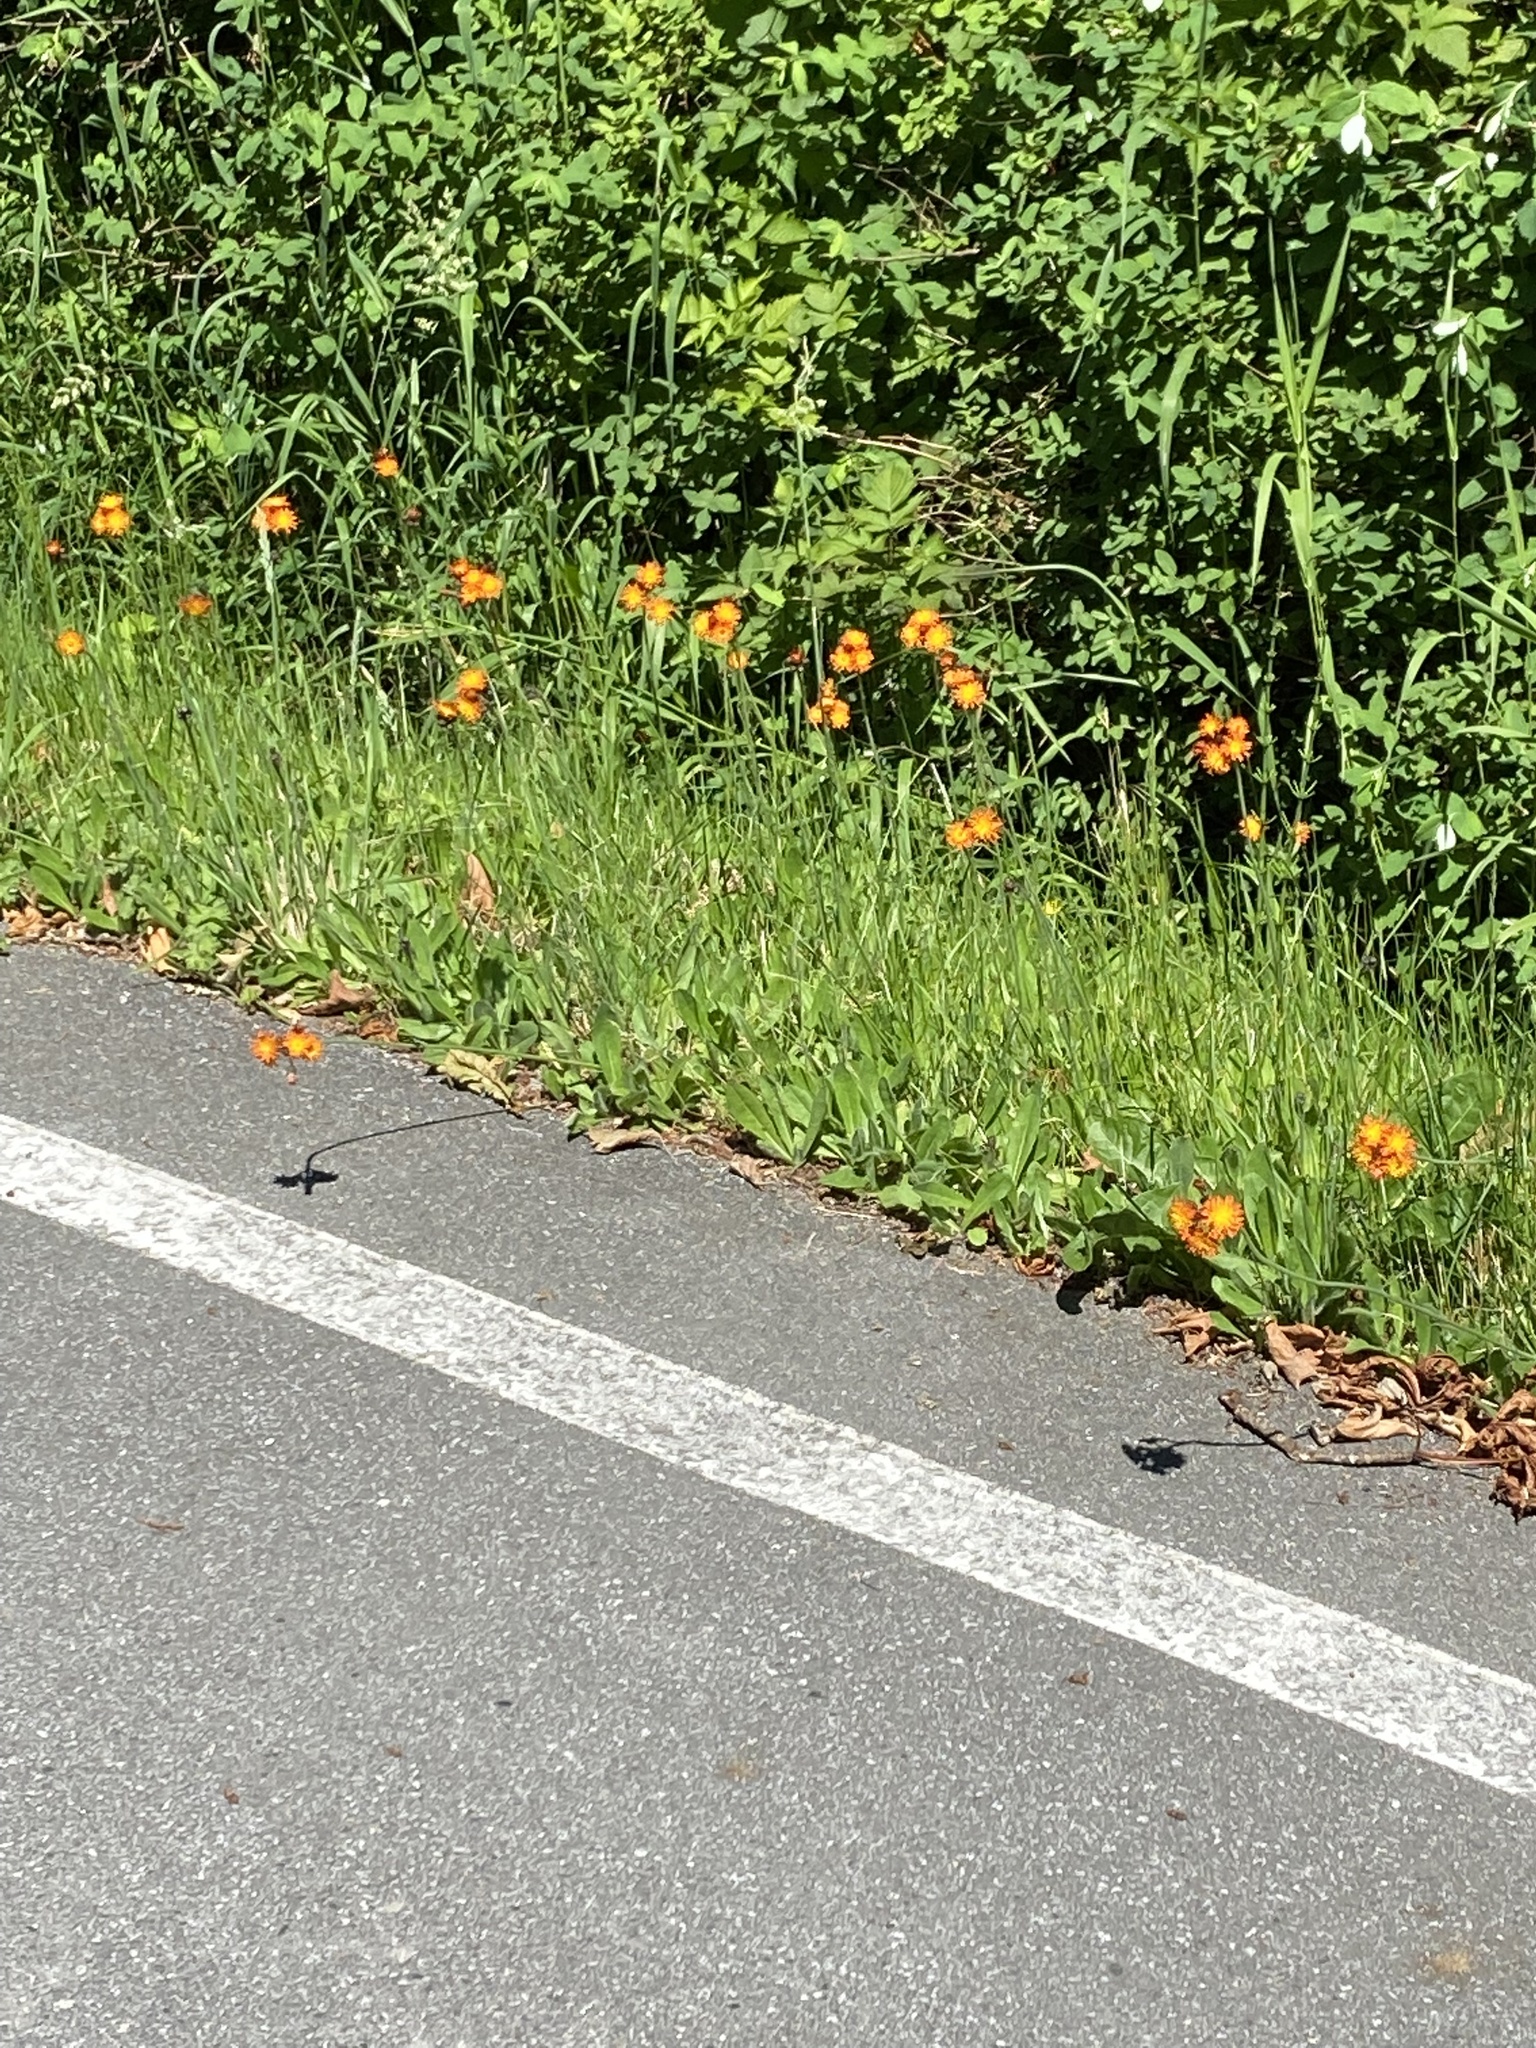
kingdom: Plantae
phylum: Tracheophyta
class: Magnoliopsida
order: Asterales
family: Asteraceae
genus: Pilosella
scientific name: Pilosella aurantiaca
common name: Fox-and-cubs
